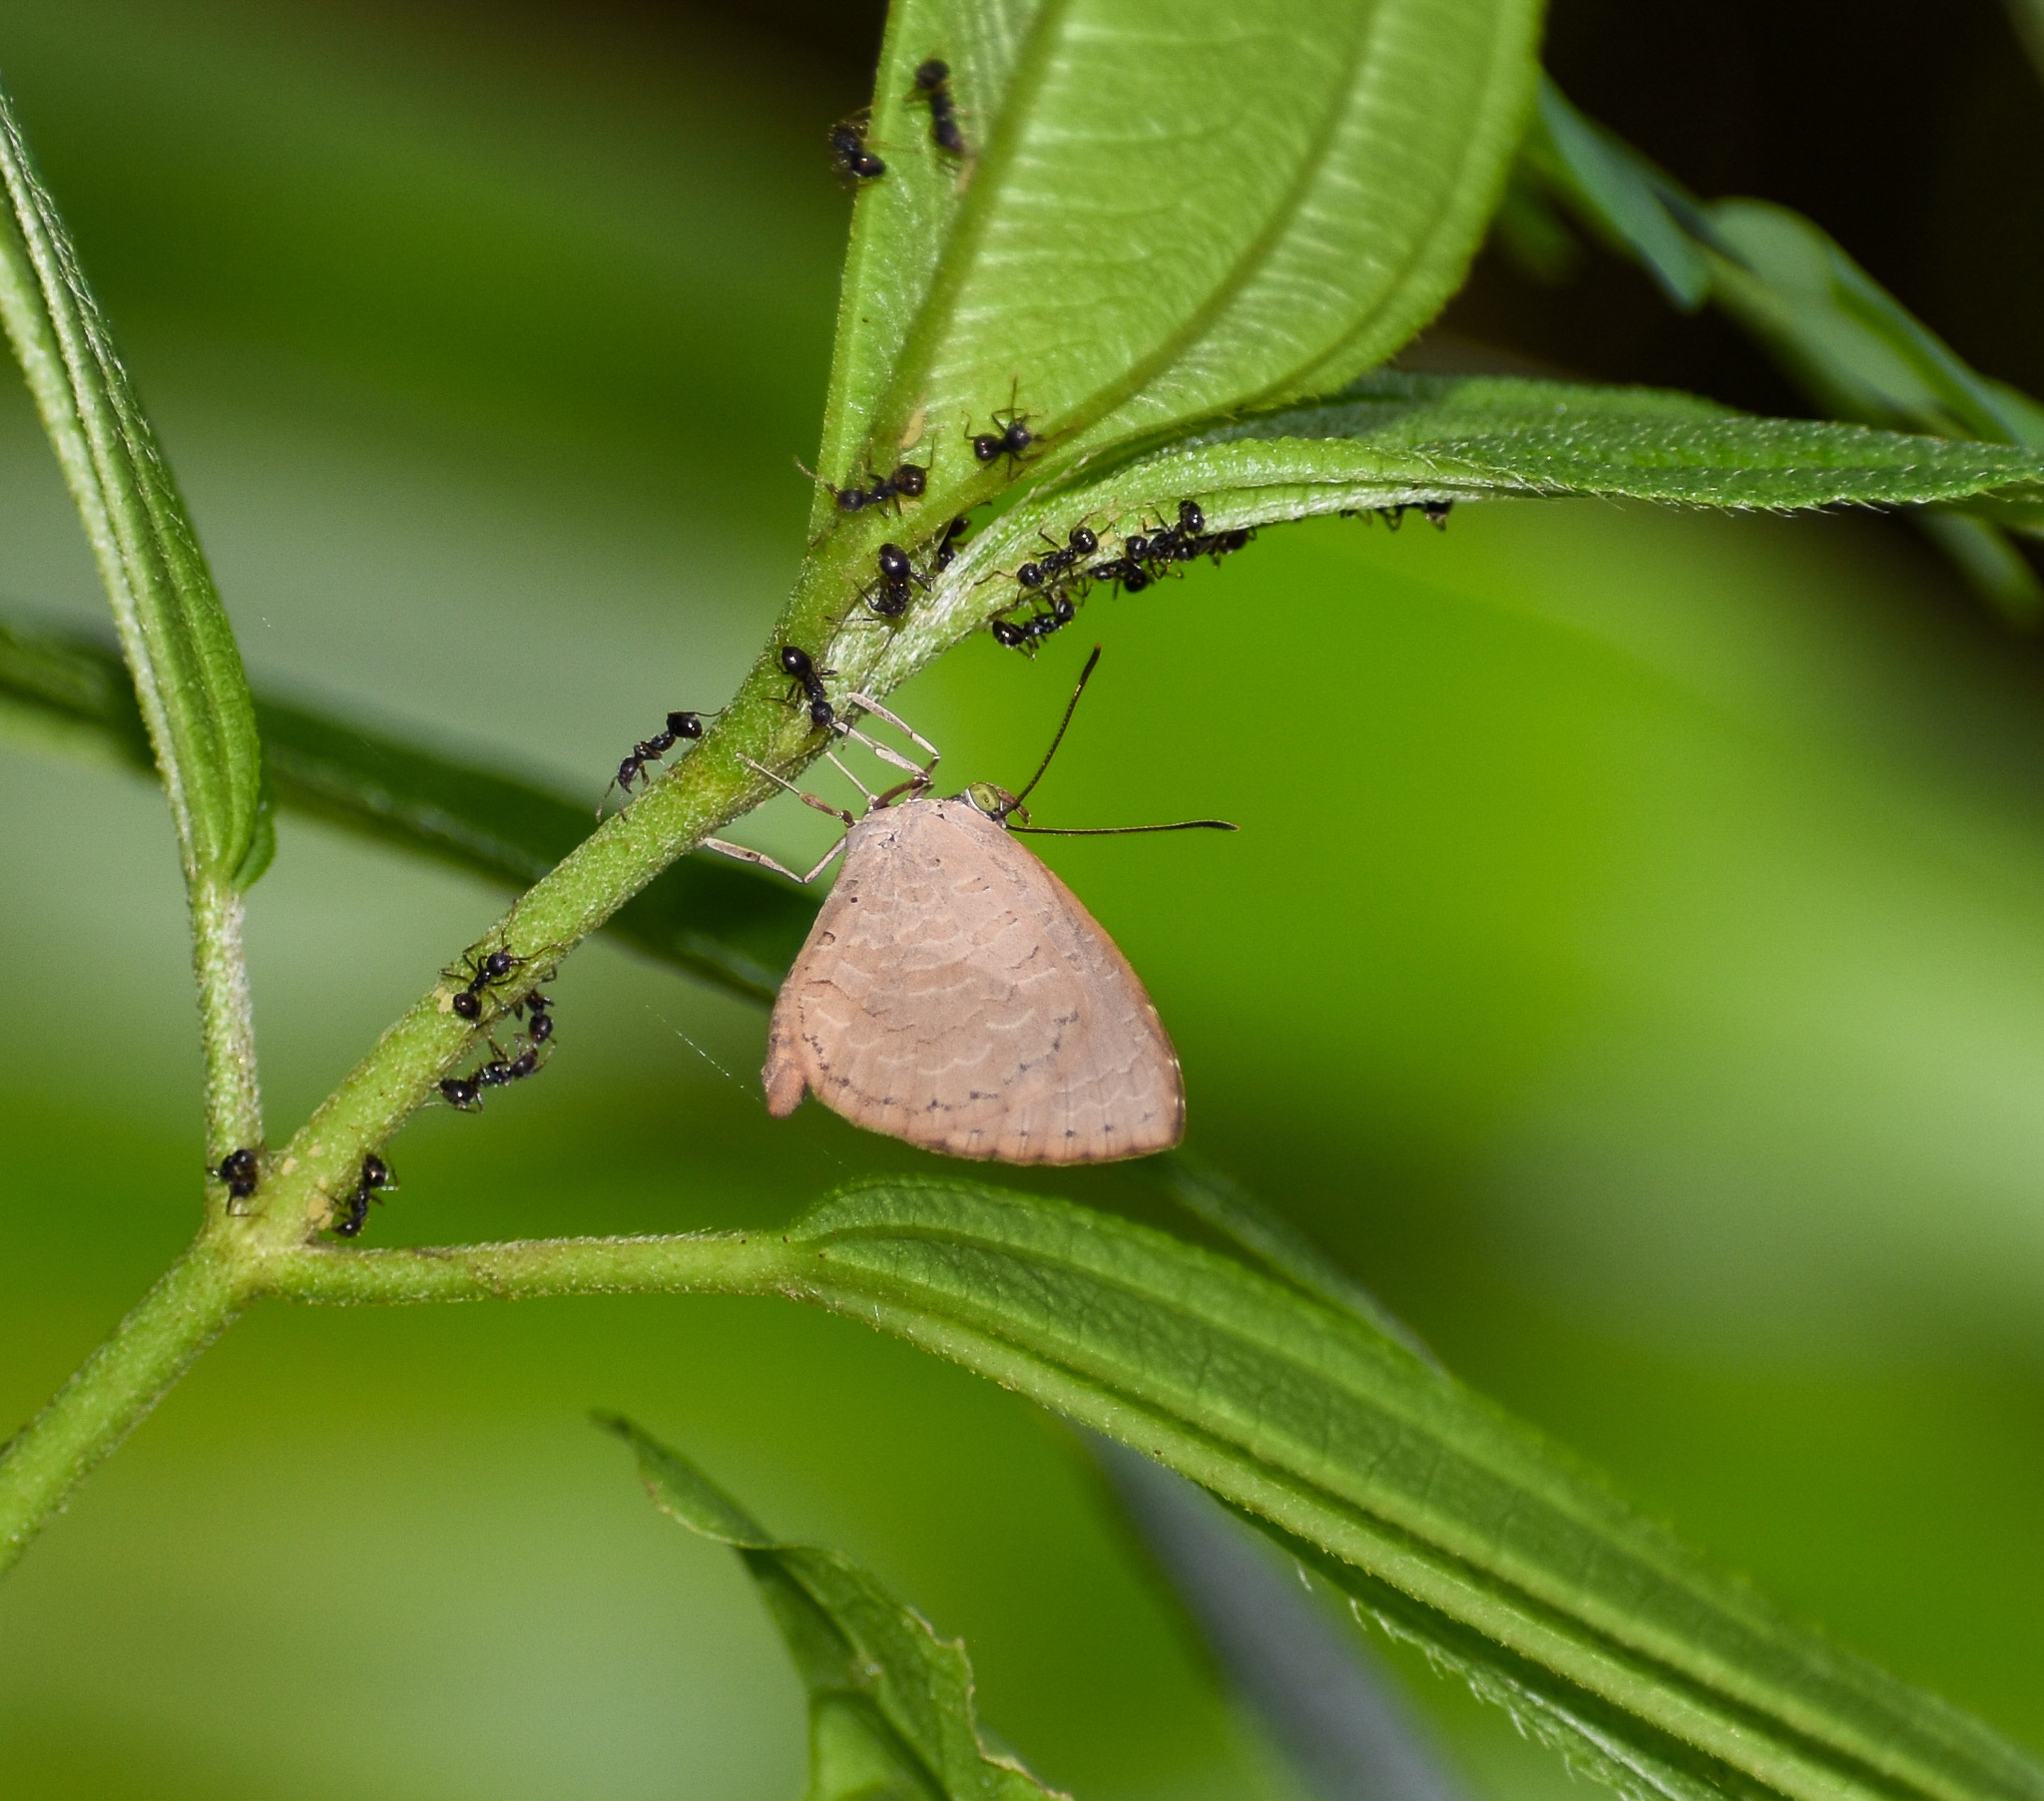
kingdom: Animalia
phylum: Arthropoda
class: Insecta
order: Lepidoptera
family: Lycaenidae
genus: Miletus
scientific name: Miletus chinensis
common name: Common brownie
